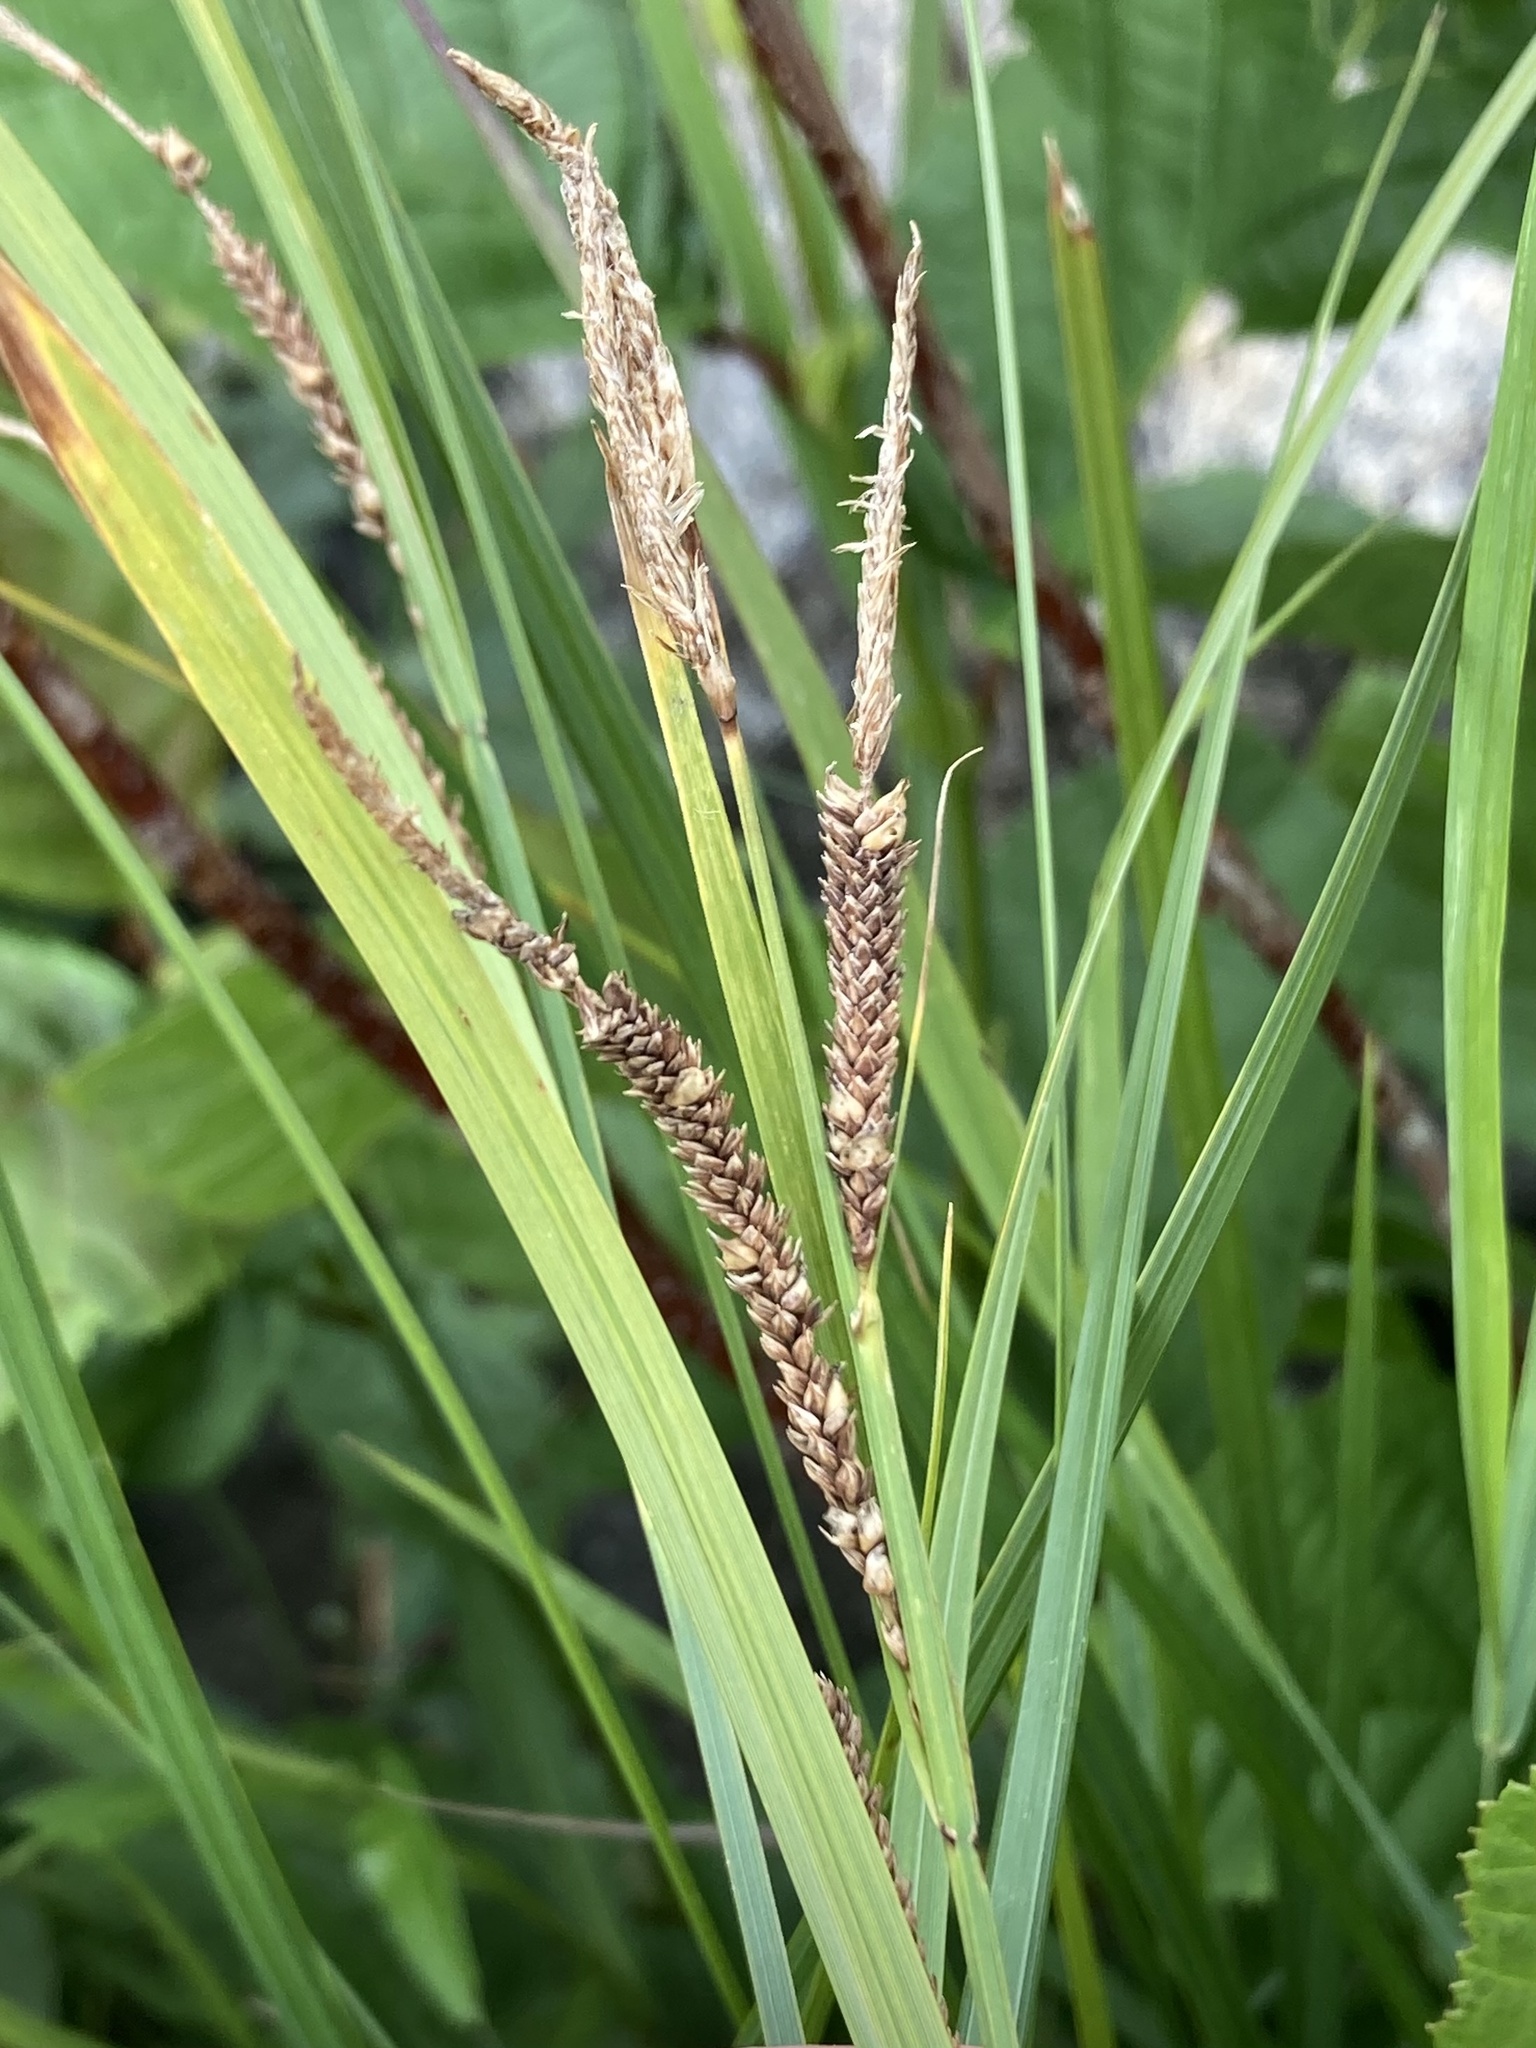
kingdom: Plantae
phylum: Tracheophyta
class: Liliopsida
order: Poales
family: Cyperaceae
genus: Carex
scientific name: Carex stricta
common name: Hummock sedge
